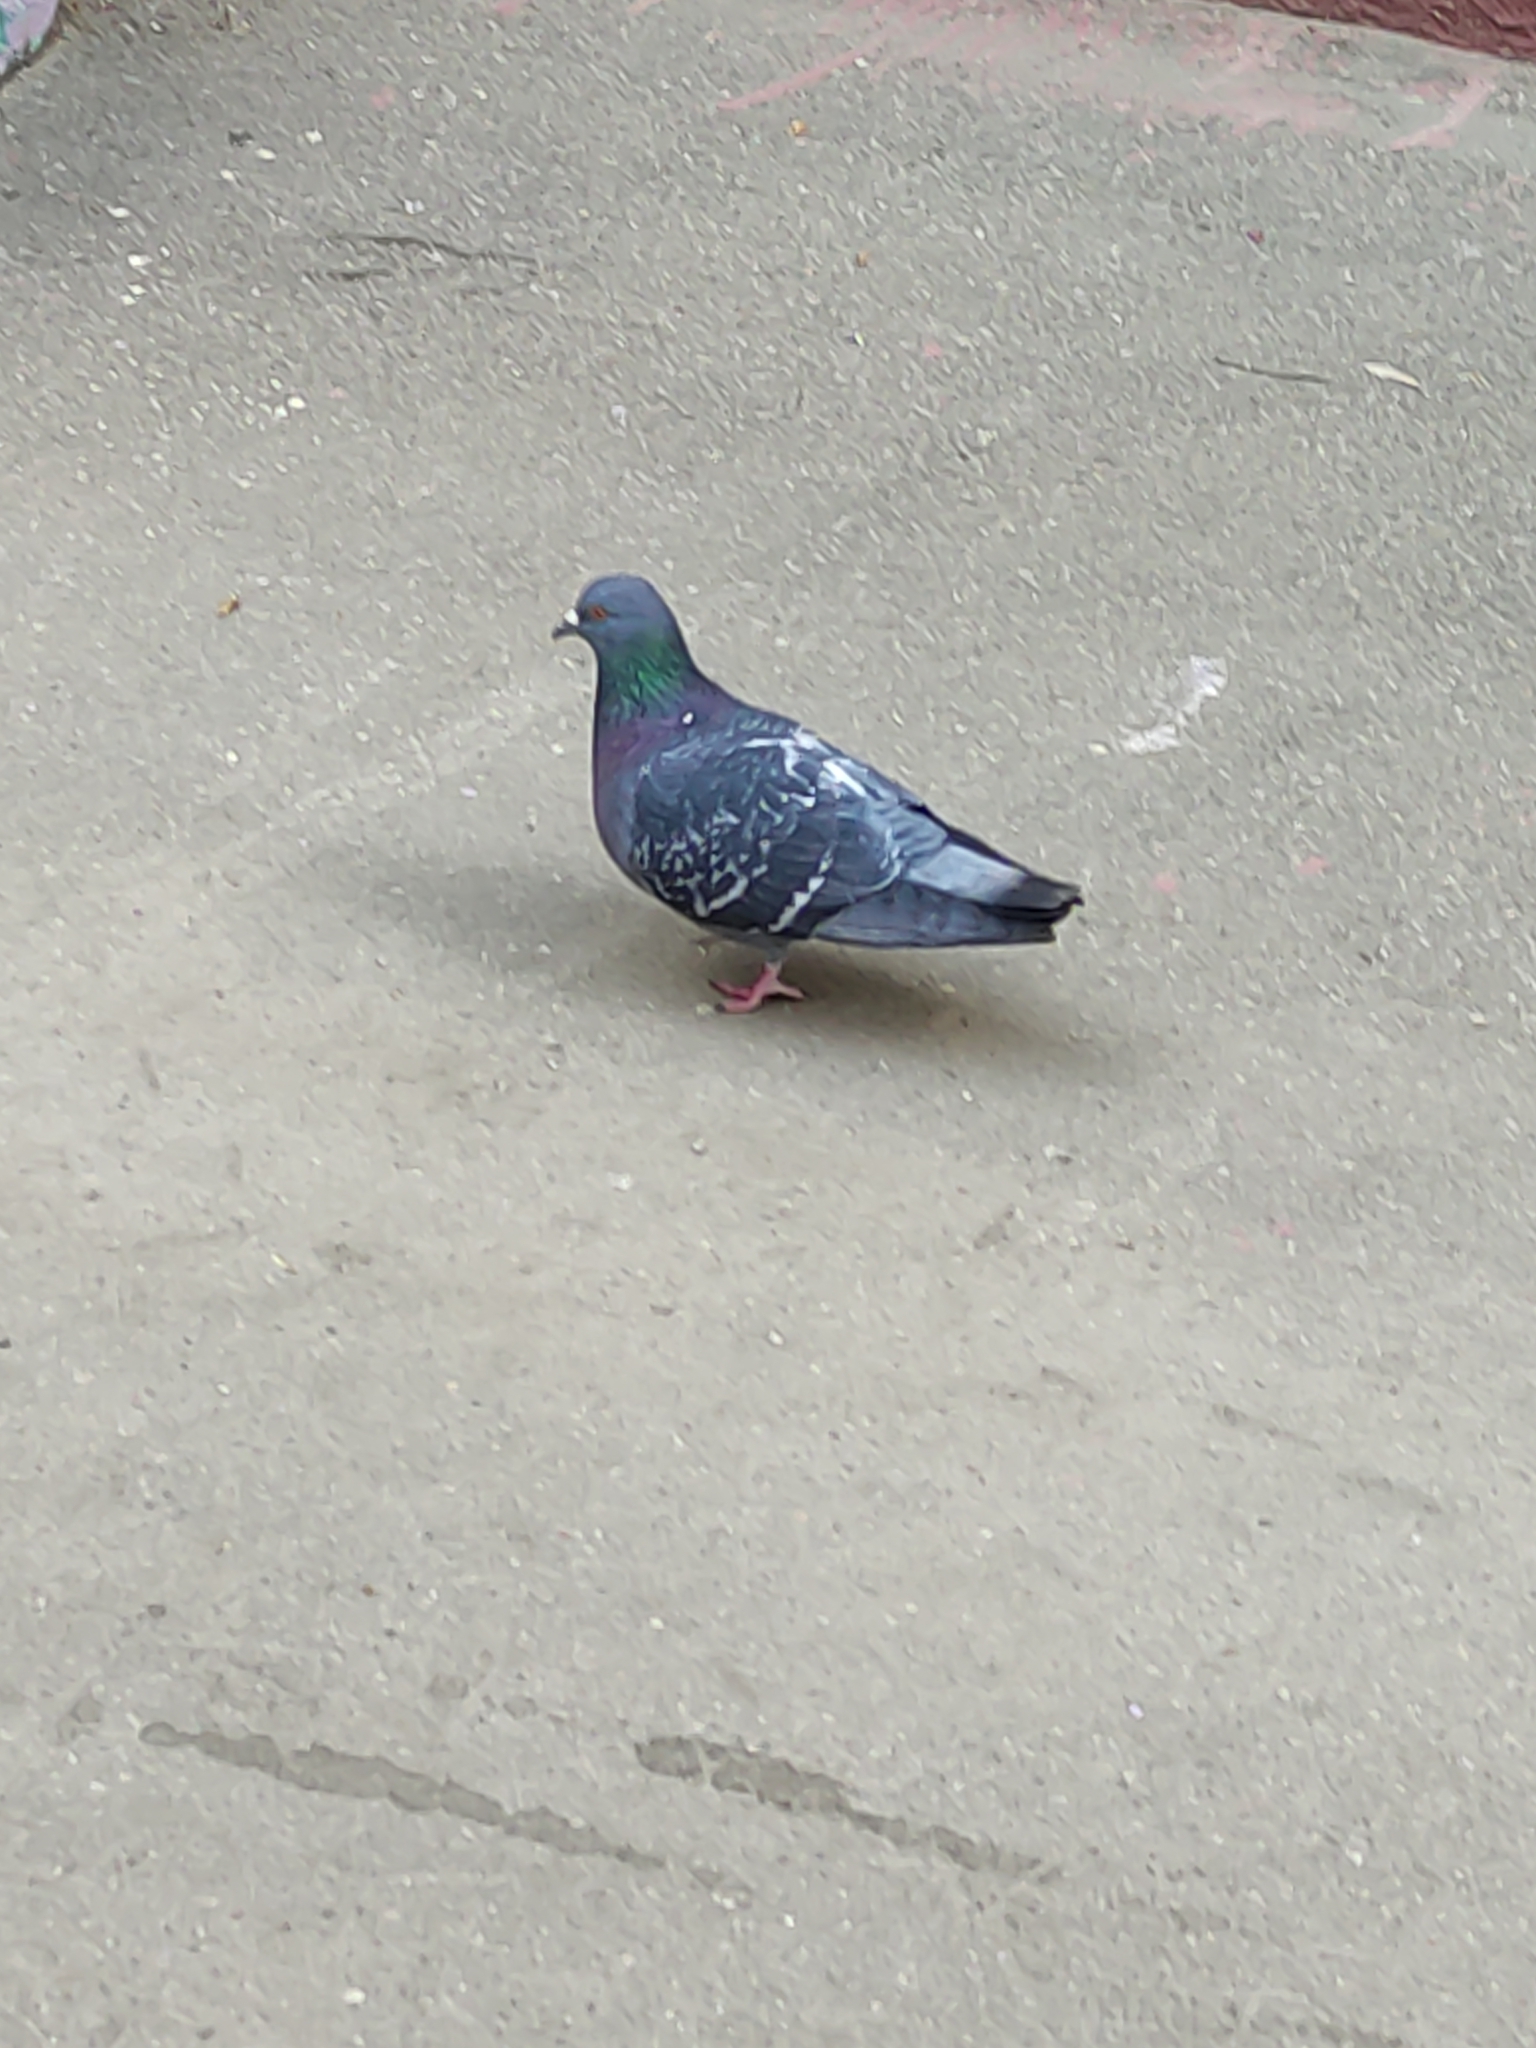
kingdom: Animalia
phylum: Chordata
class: Aves
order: Columbiformes
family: Columbidae
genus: Columba
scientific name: Columba livia
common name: Rock pigeon
